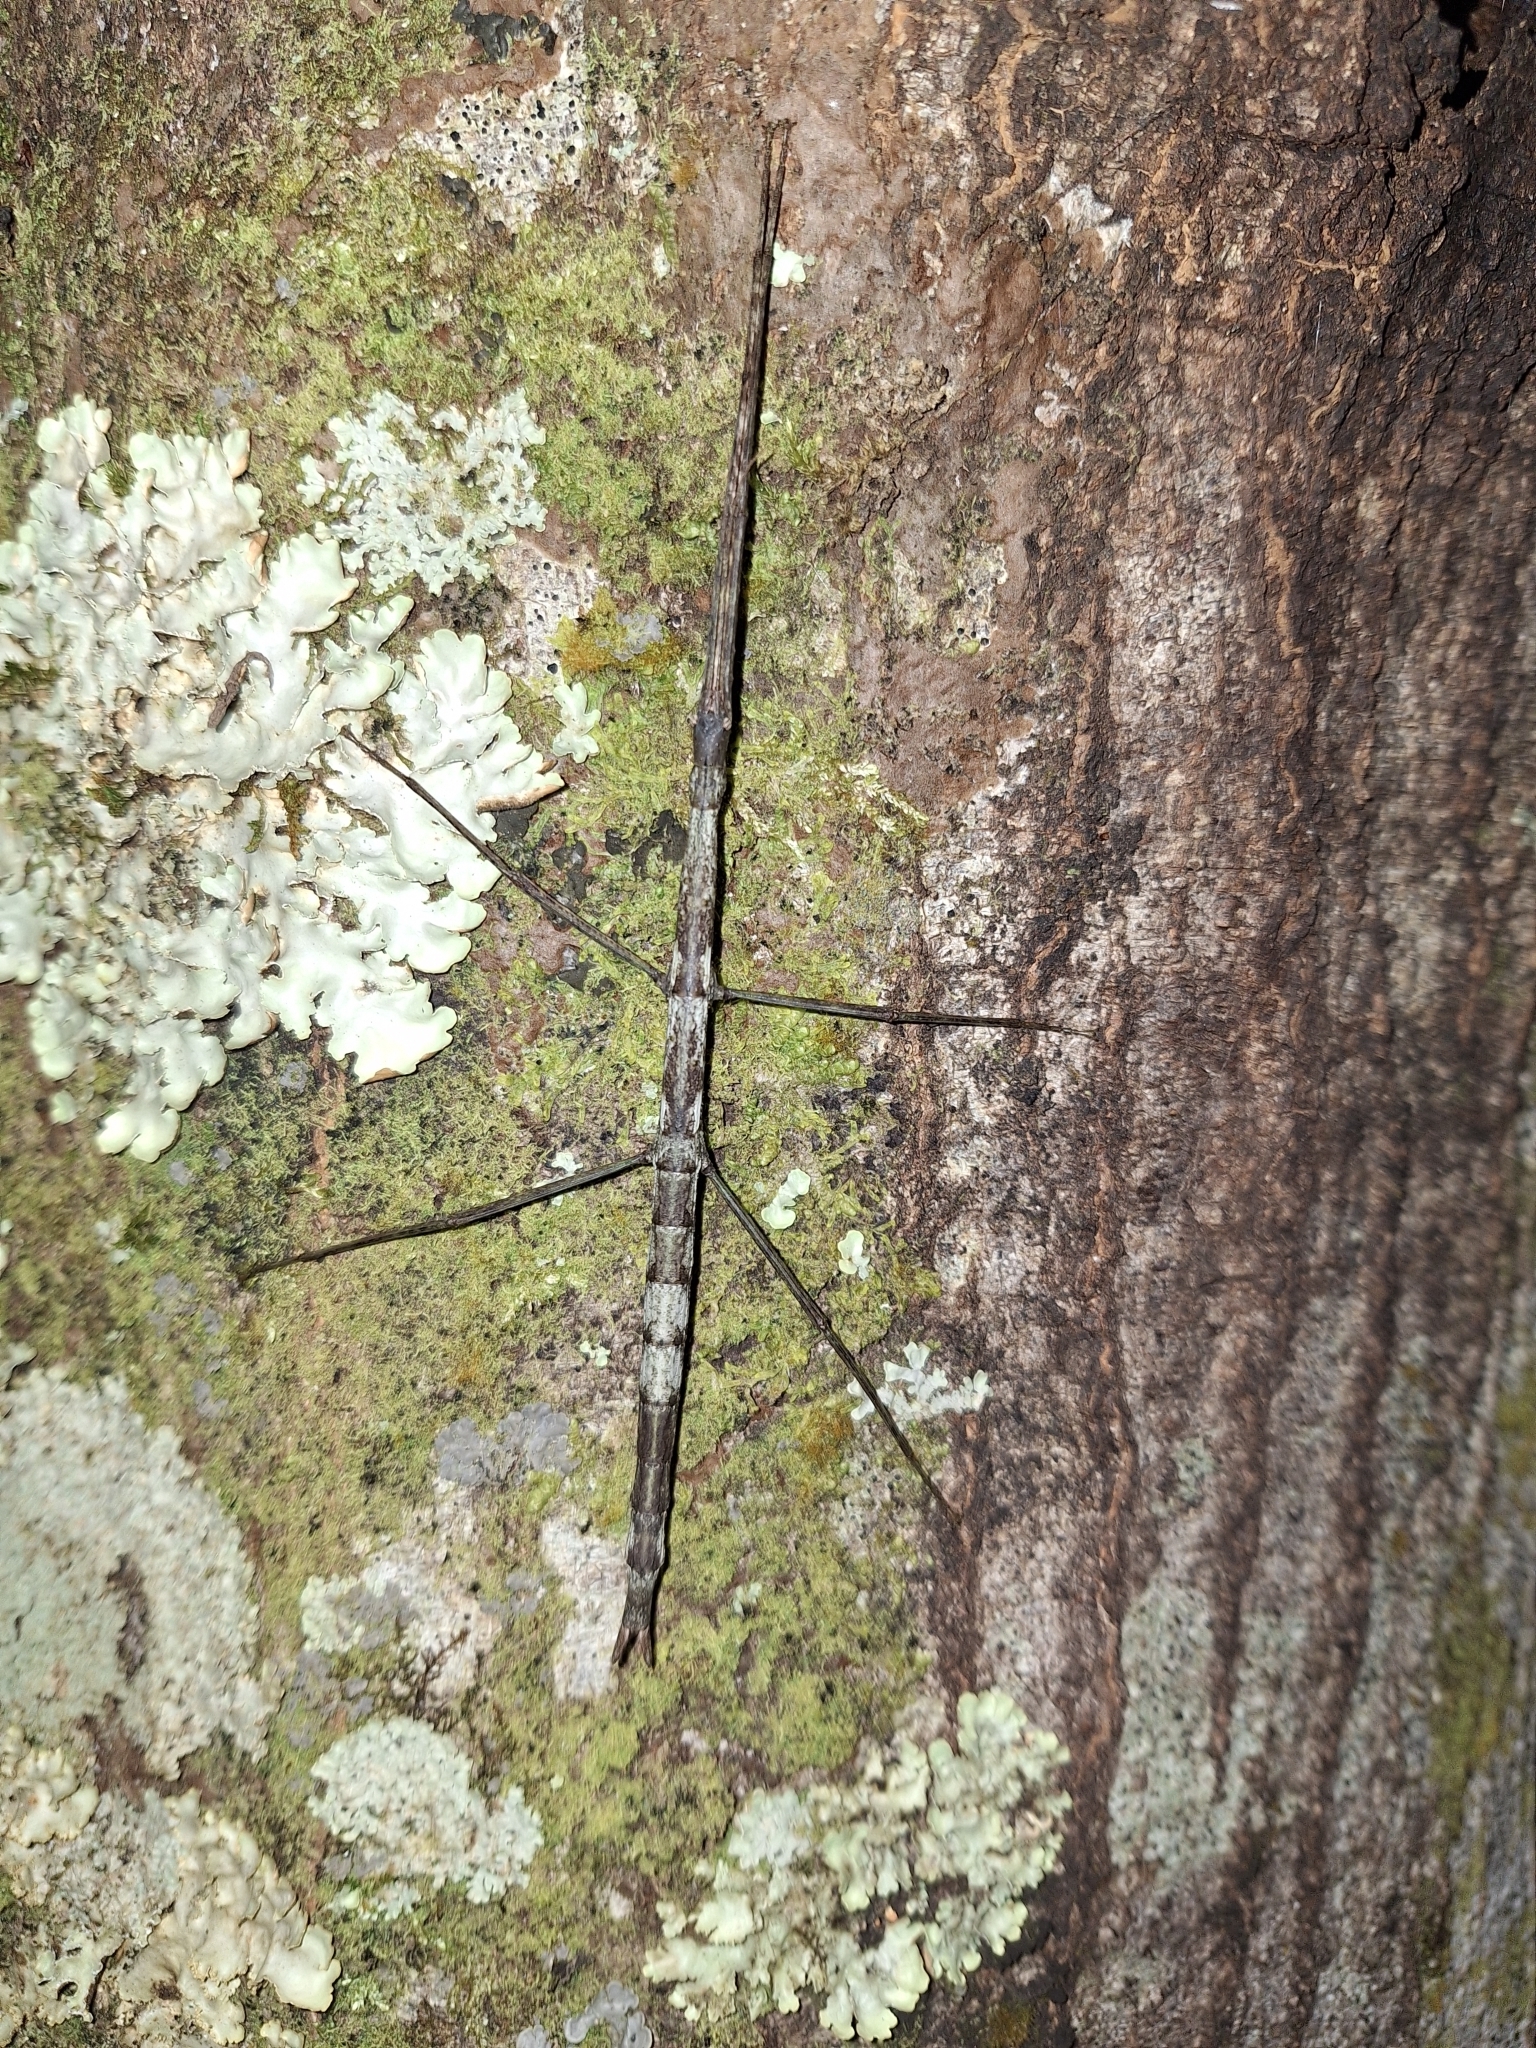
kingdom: Animalia
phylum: Arthropoda
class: Insecta
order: Phasmida
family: Phasmatidae
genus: Clitarchus
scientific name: Clitarchus hookeri
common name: Smooth stick insect
